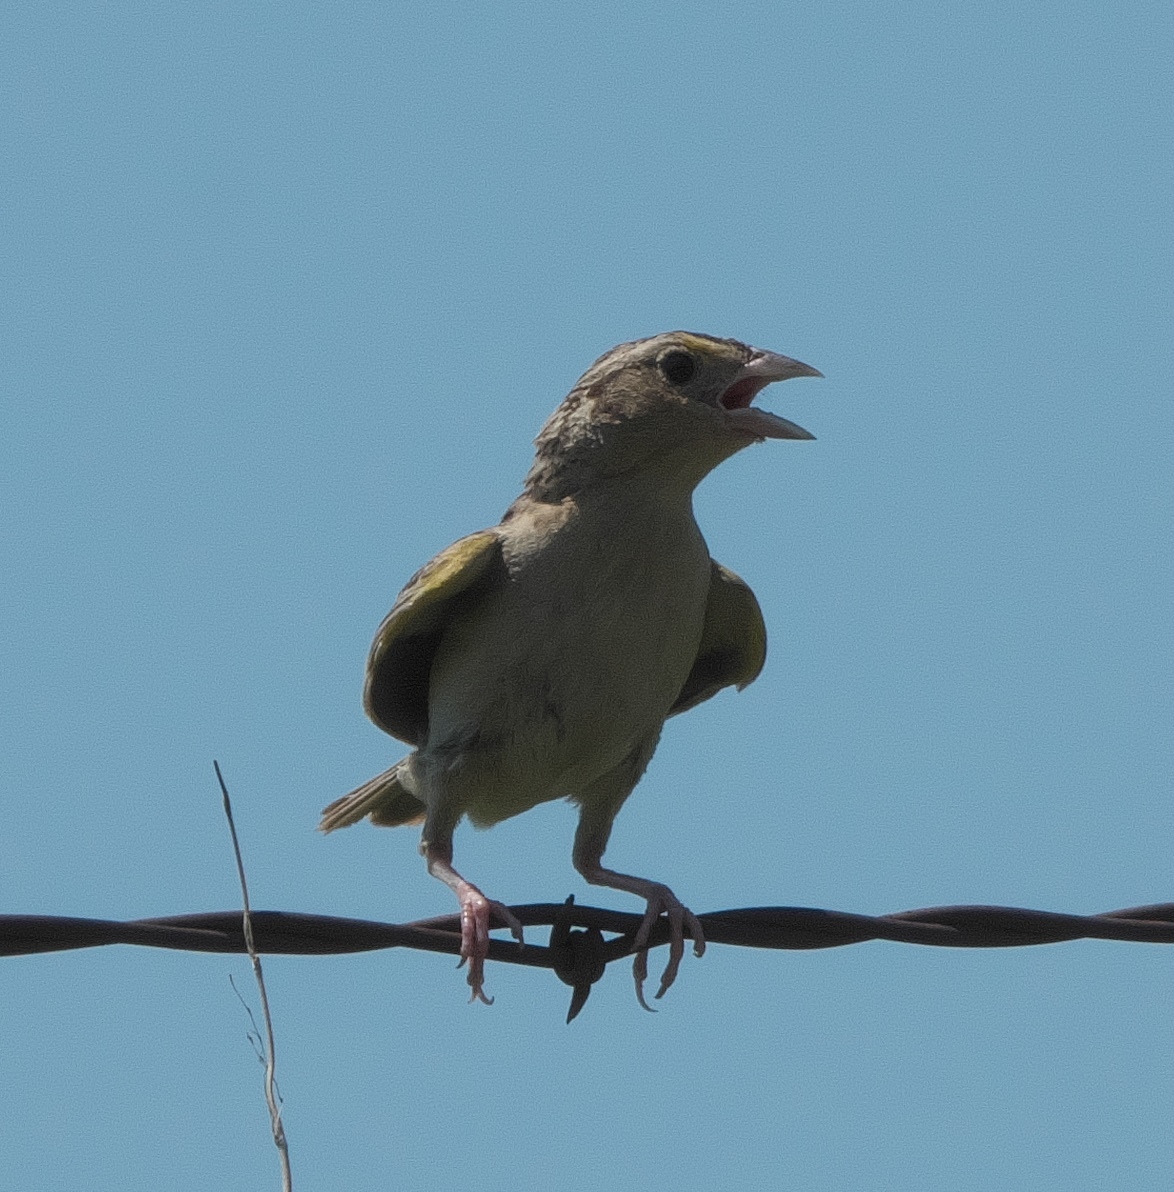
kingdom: Animalia
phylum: Chordata
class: Aves
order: Passeriformes
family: Passerellidae
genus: Ammodramus
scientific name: Ammodramus savannarum
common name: Grasshopper sparrow
